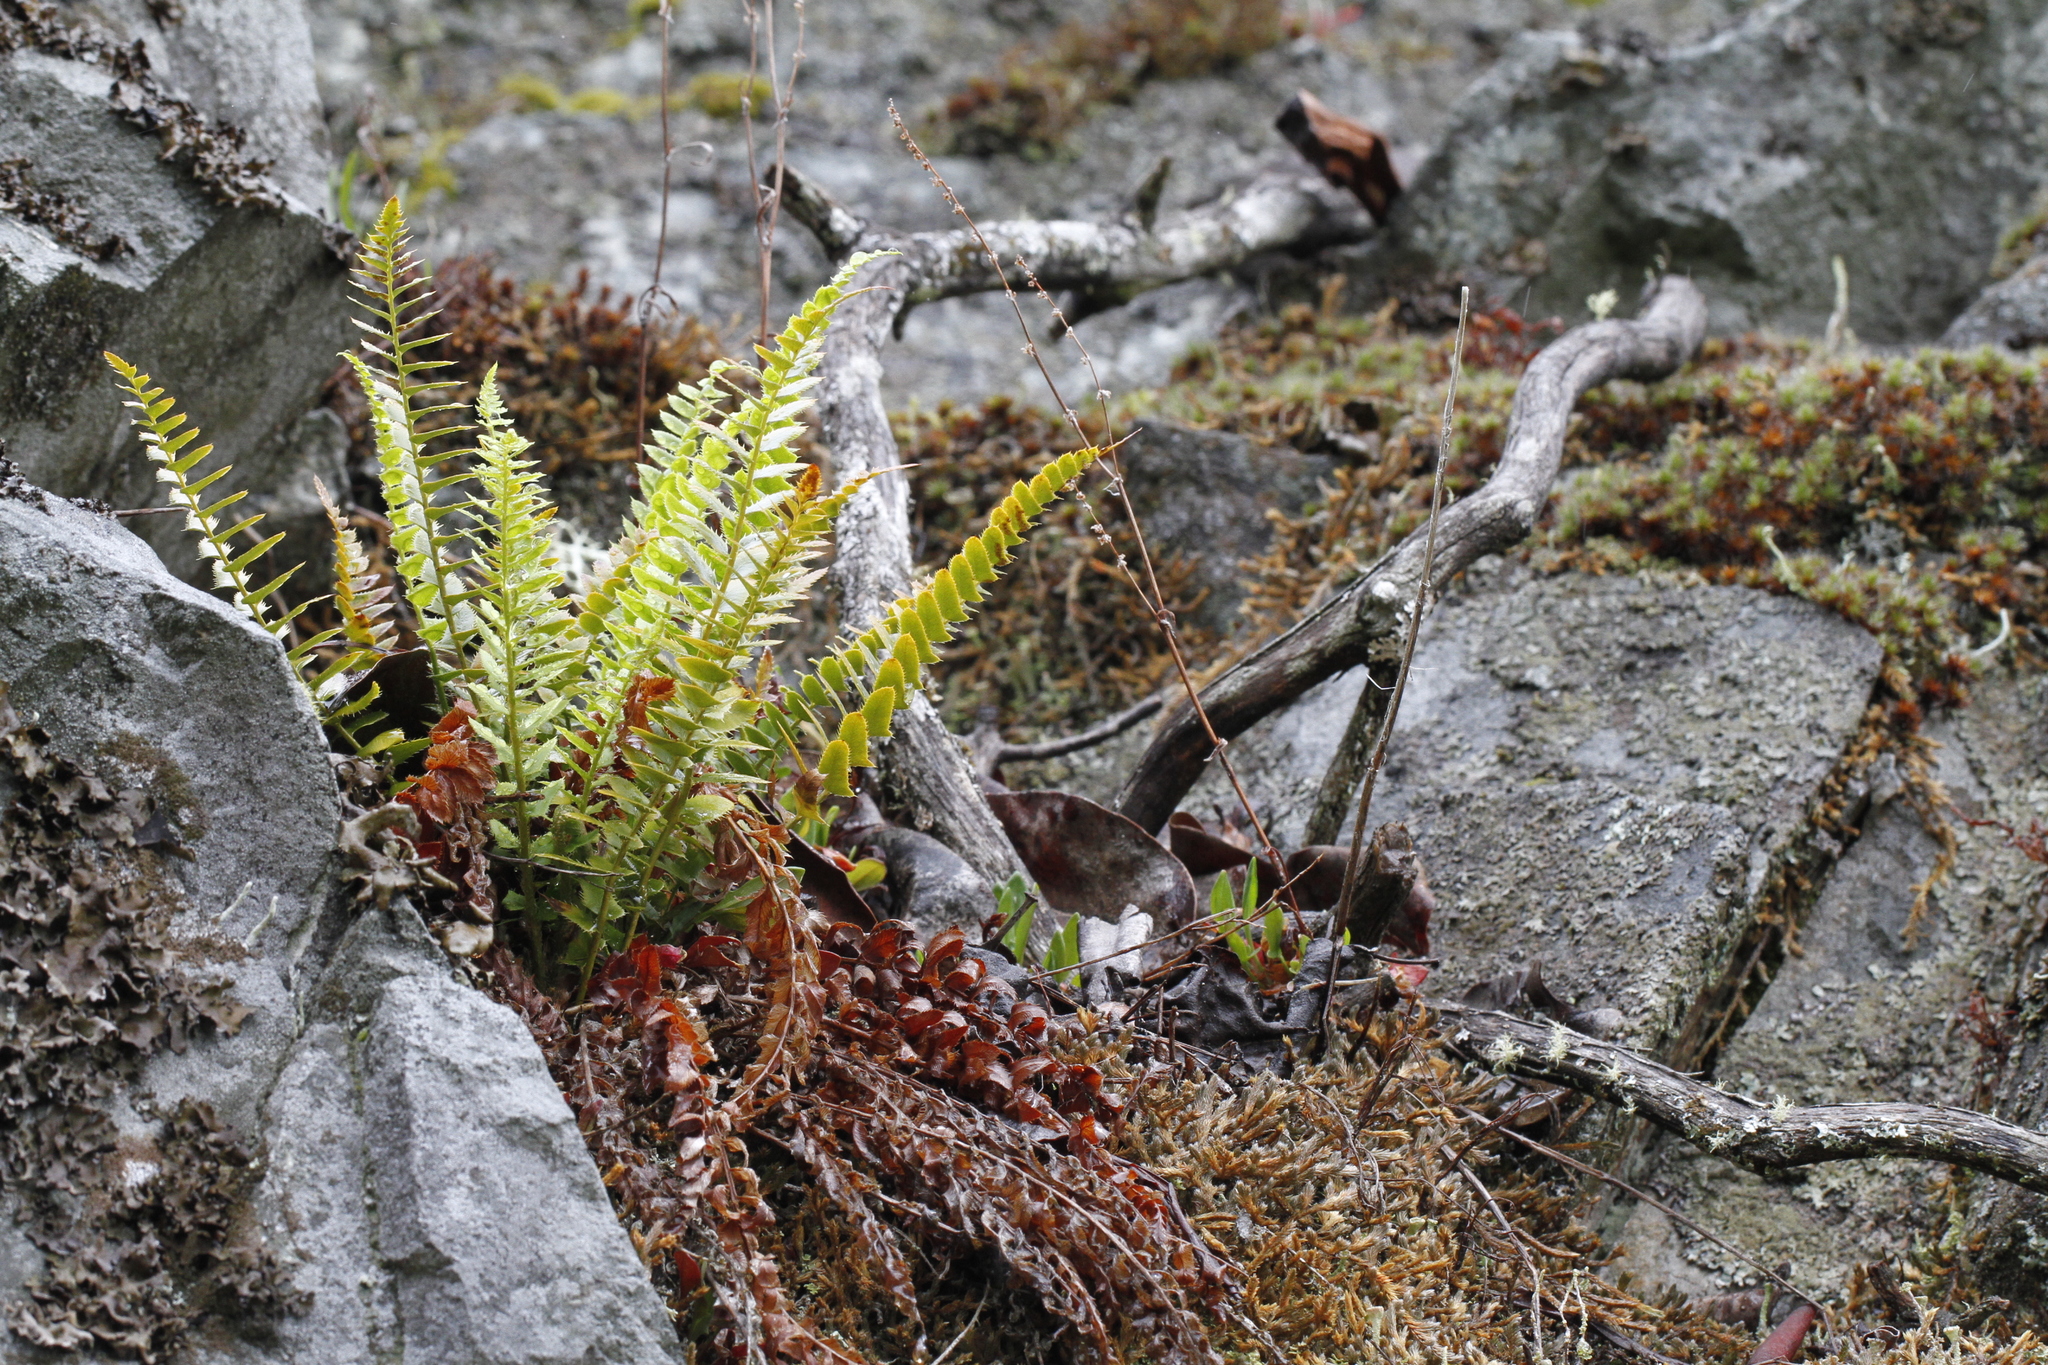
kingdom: Plantae
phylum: Tracheophyta
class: Polypodiopsida
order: Polypodiales
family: Dryopteridaceae
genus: Polystichum
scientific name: Polystichum imbricans
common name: Dwarf western sword fern
